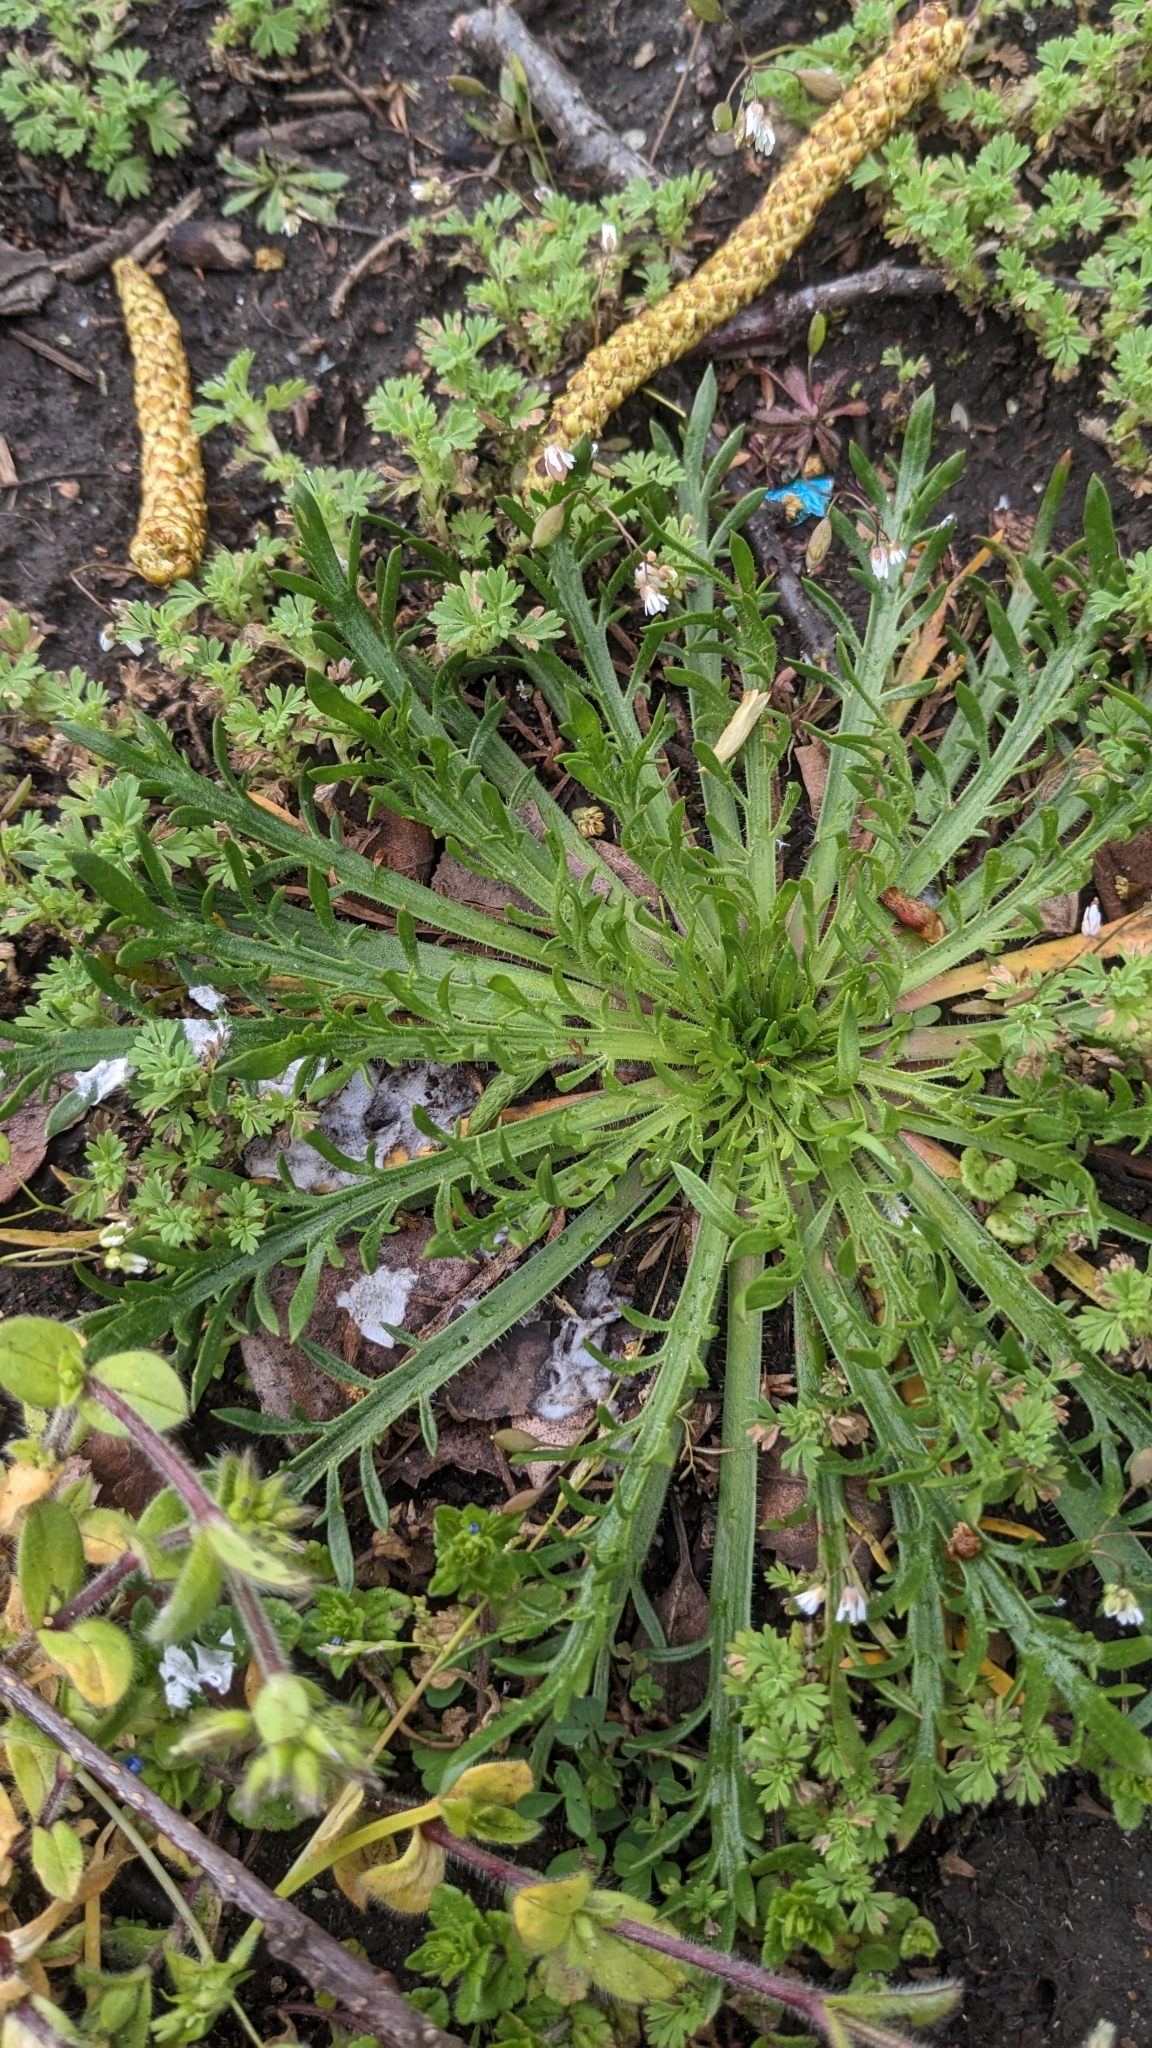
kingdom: Plantae
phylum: Tracheophyta
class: Magnoliopsida
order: Lamiales
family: Plantaginaceae
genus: Plantago
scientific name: Plantago coronopus
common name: Buck's-horn plantain
